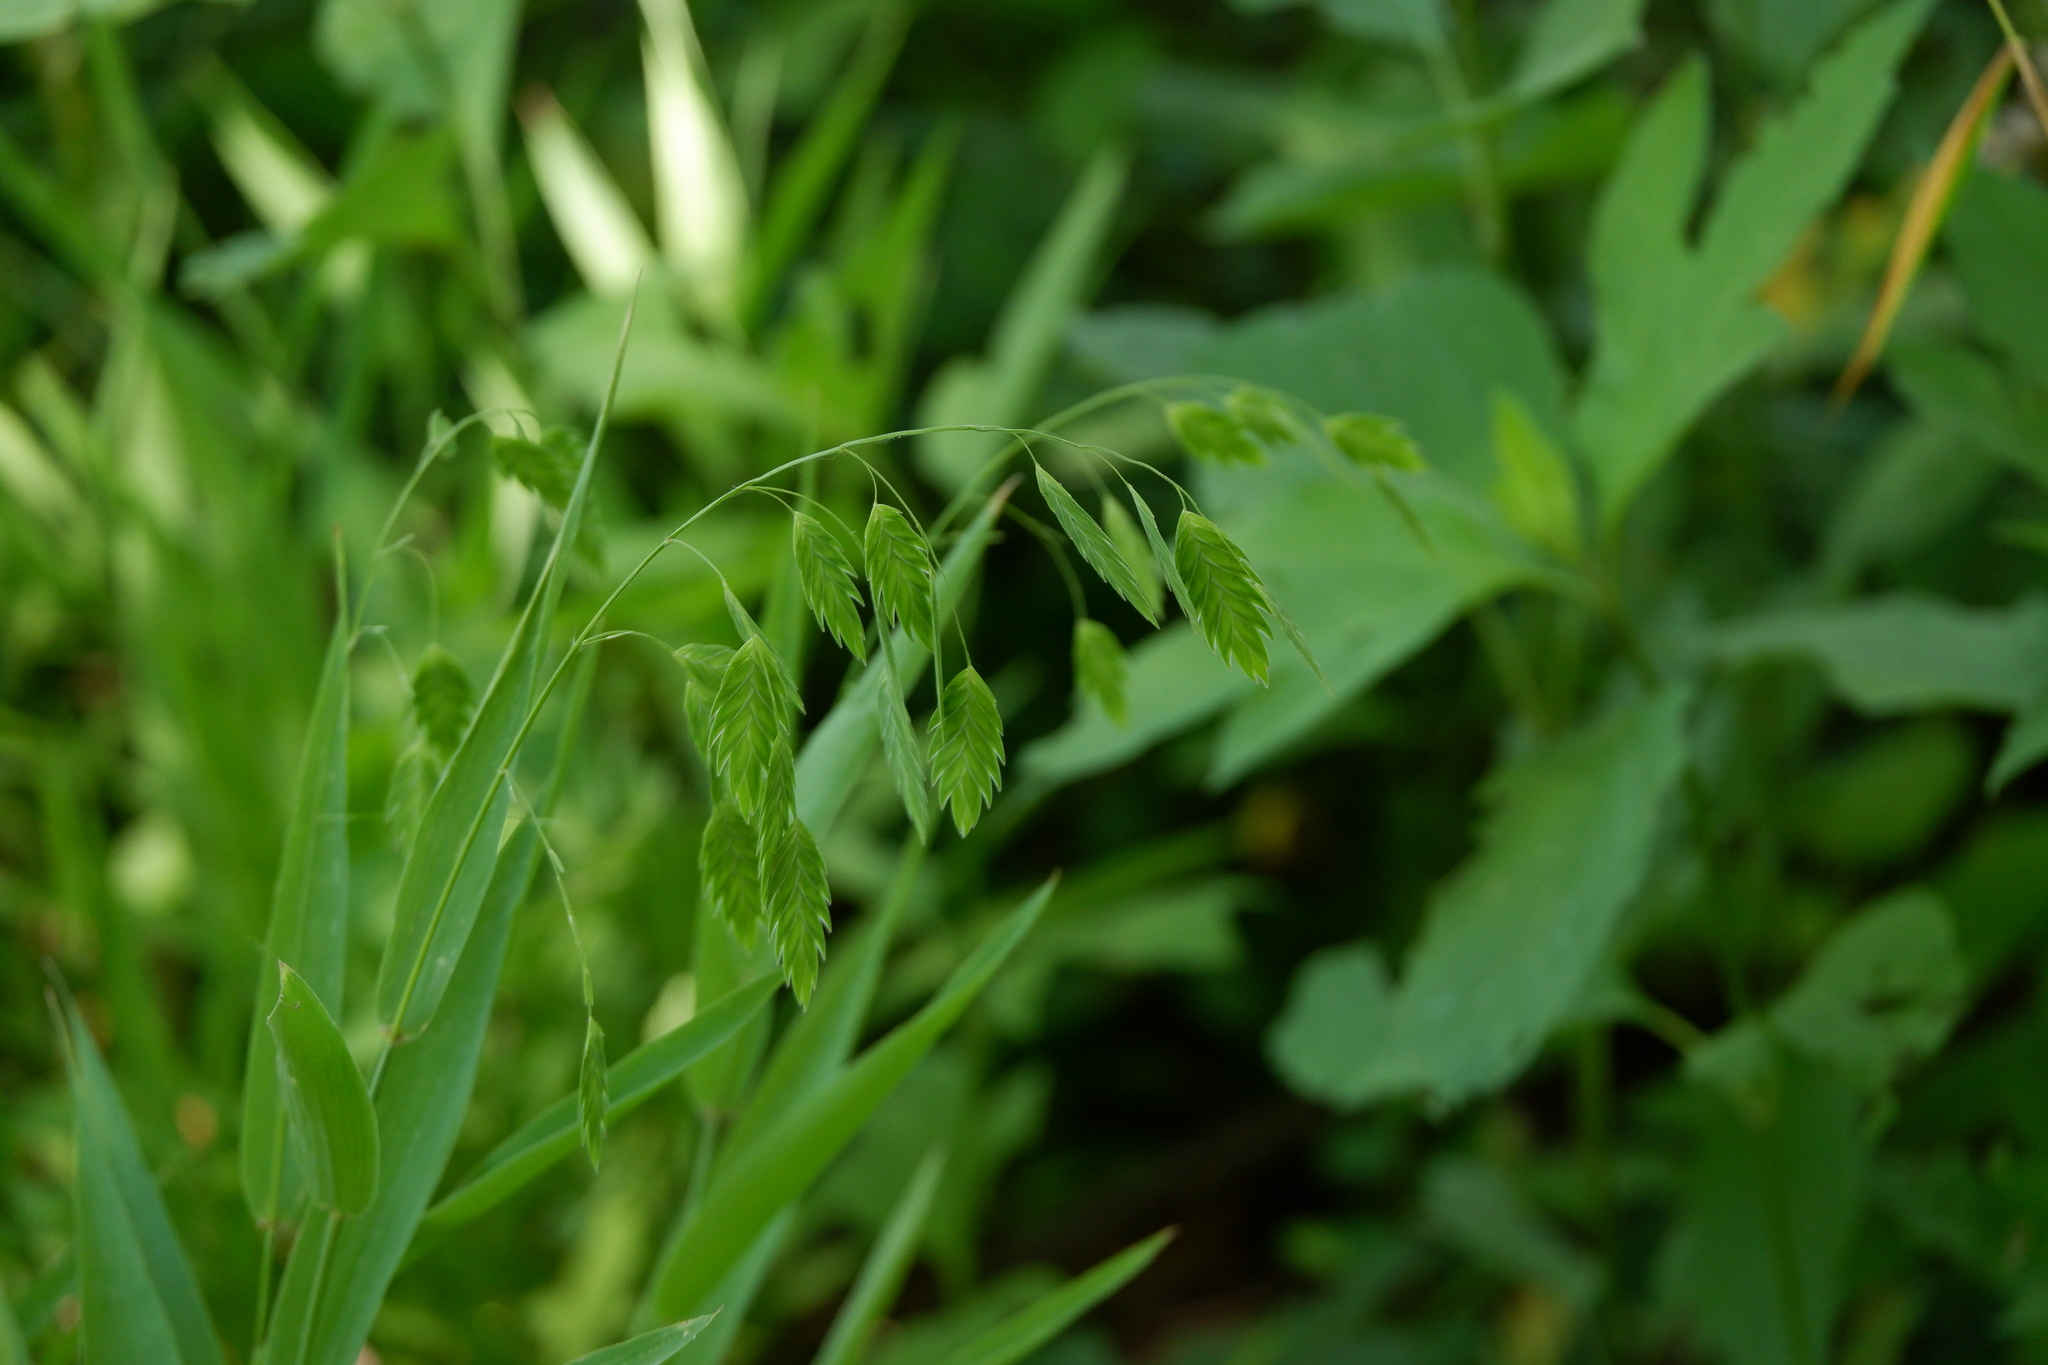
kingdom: Plantae
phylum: Tracheophyta
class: Liliopsida
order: Poales
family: Poaceae
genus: Chasmanthium
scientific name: Chasmanthium latifolium
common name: Broad-leaved chasmanthium
